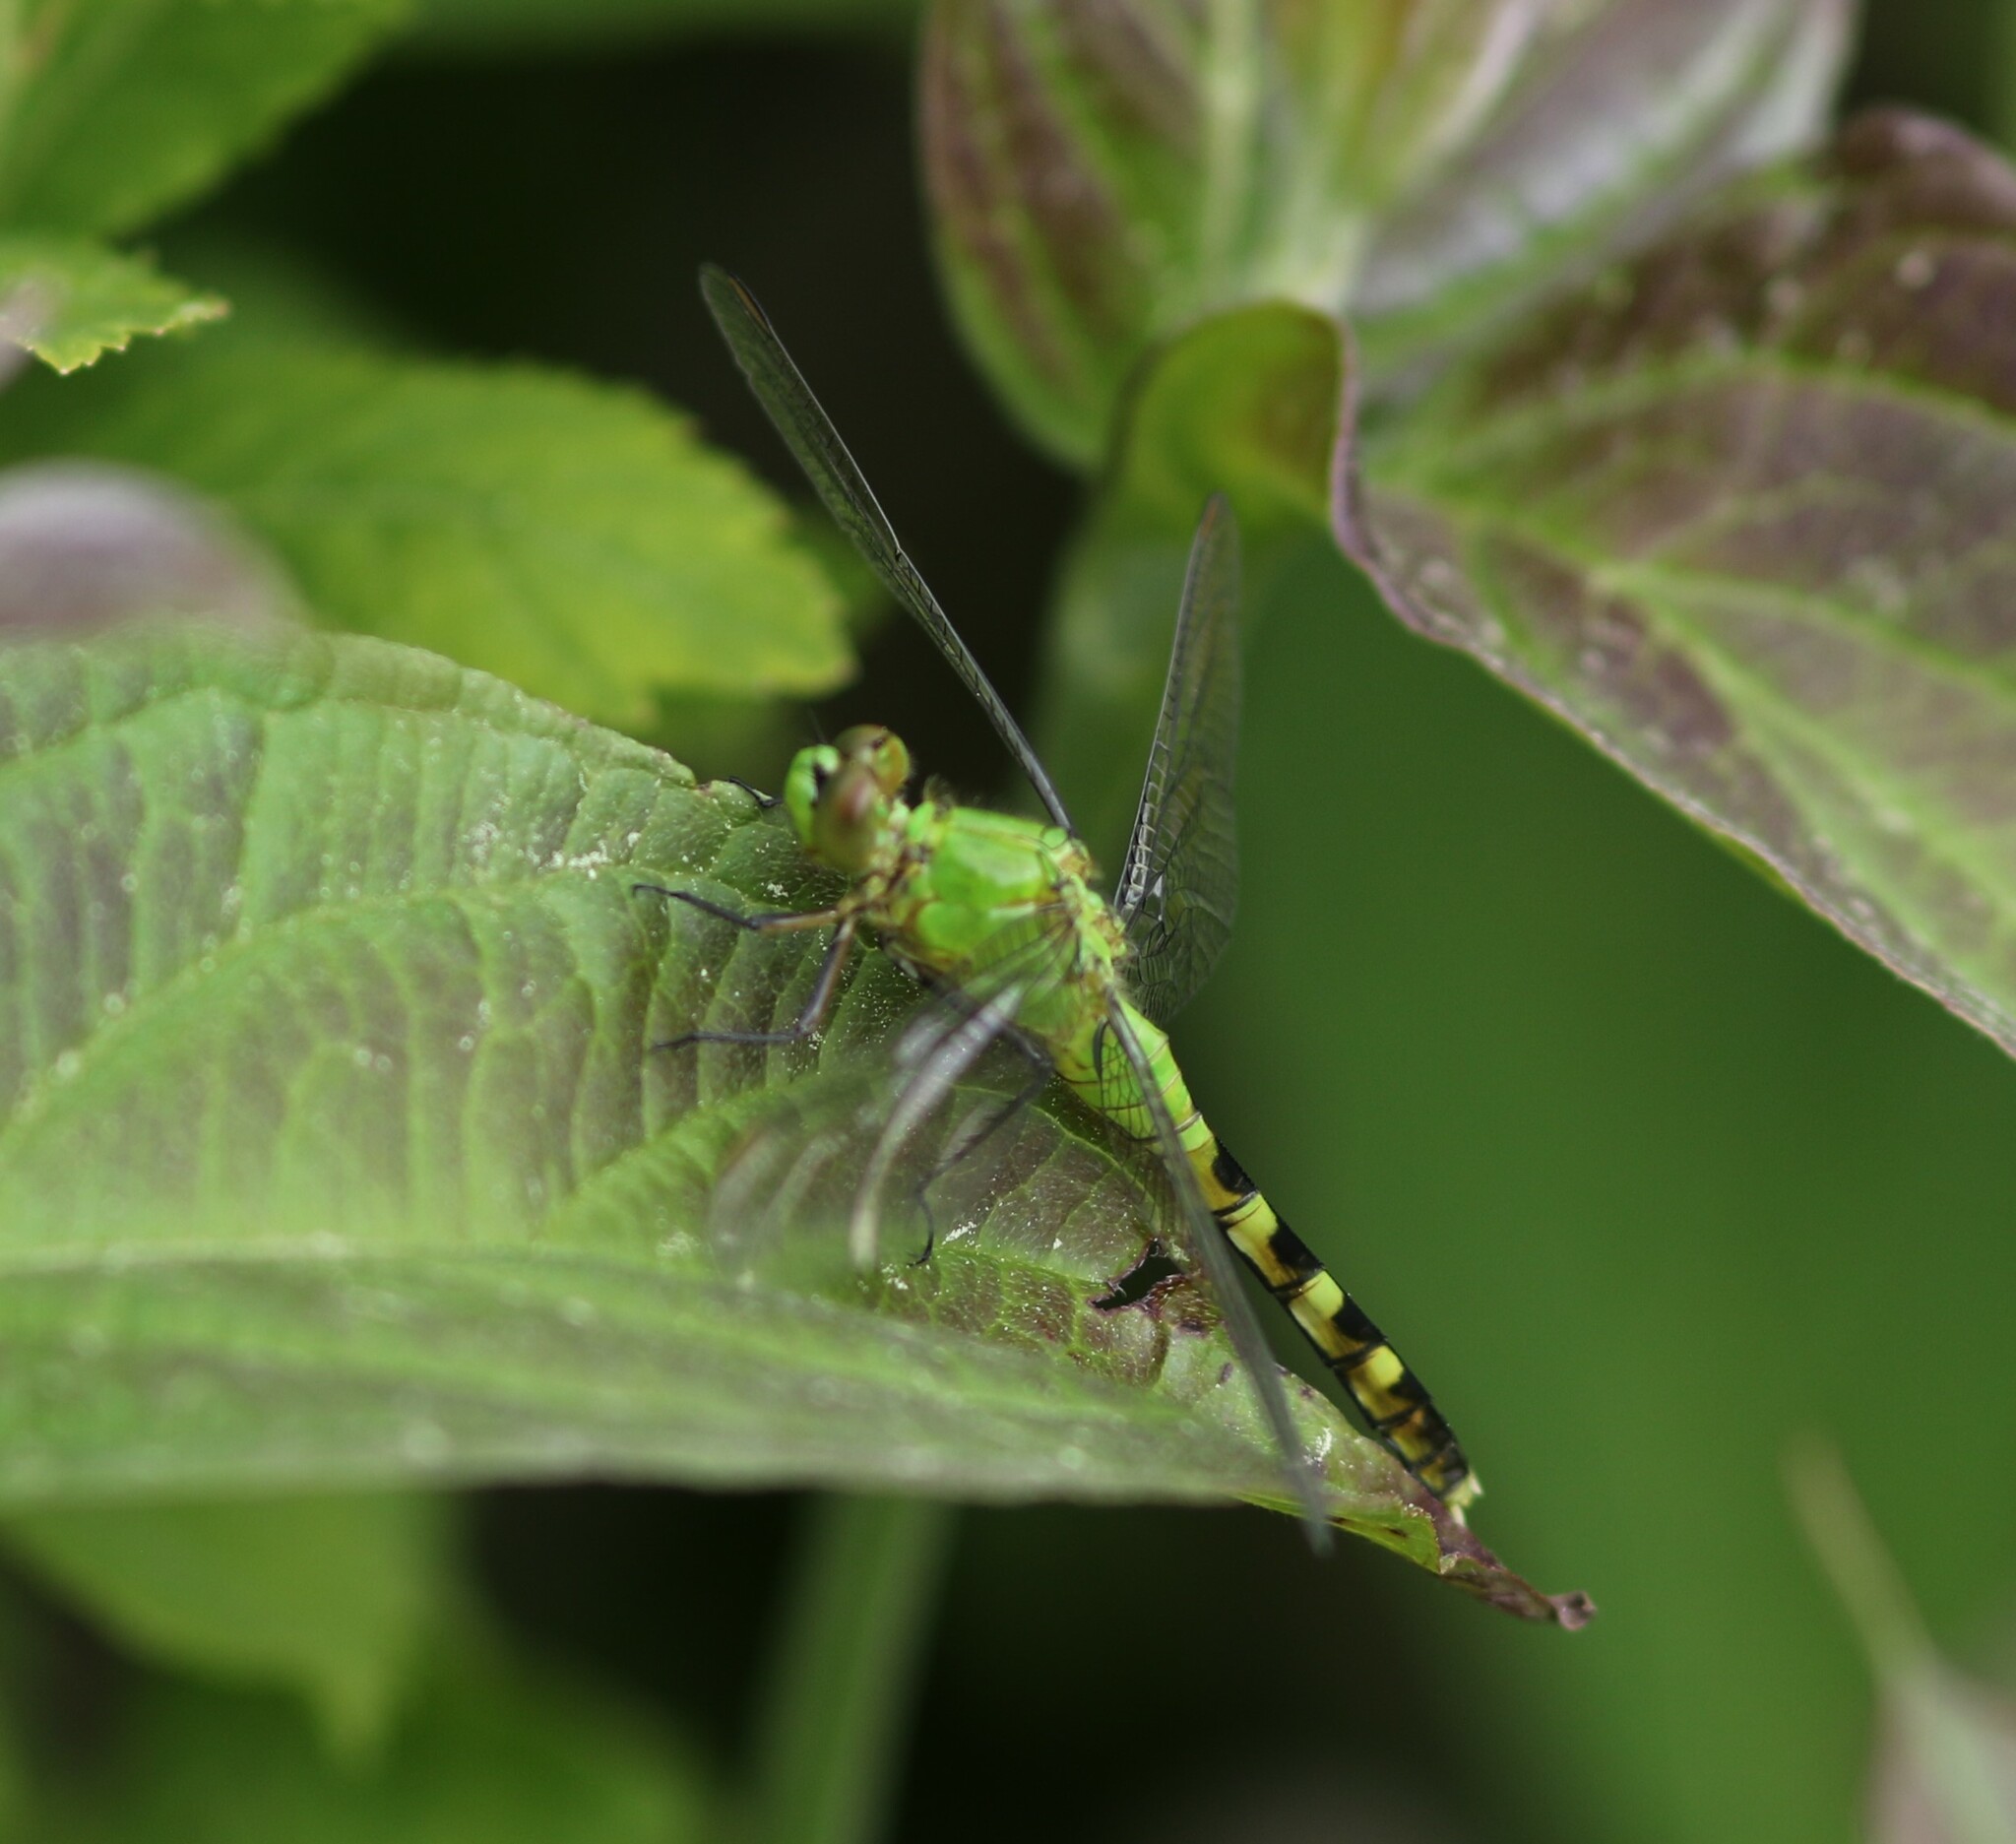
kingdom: Animalia
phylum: Arthropoda
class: Insecta
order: Odonata
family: Libellulidae
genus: Erythemis
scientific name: Erythemis simplicicollis
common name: Eastern pondhawk
